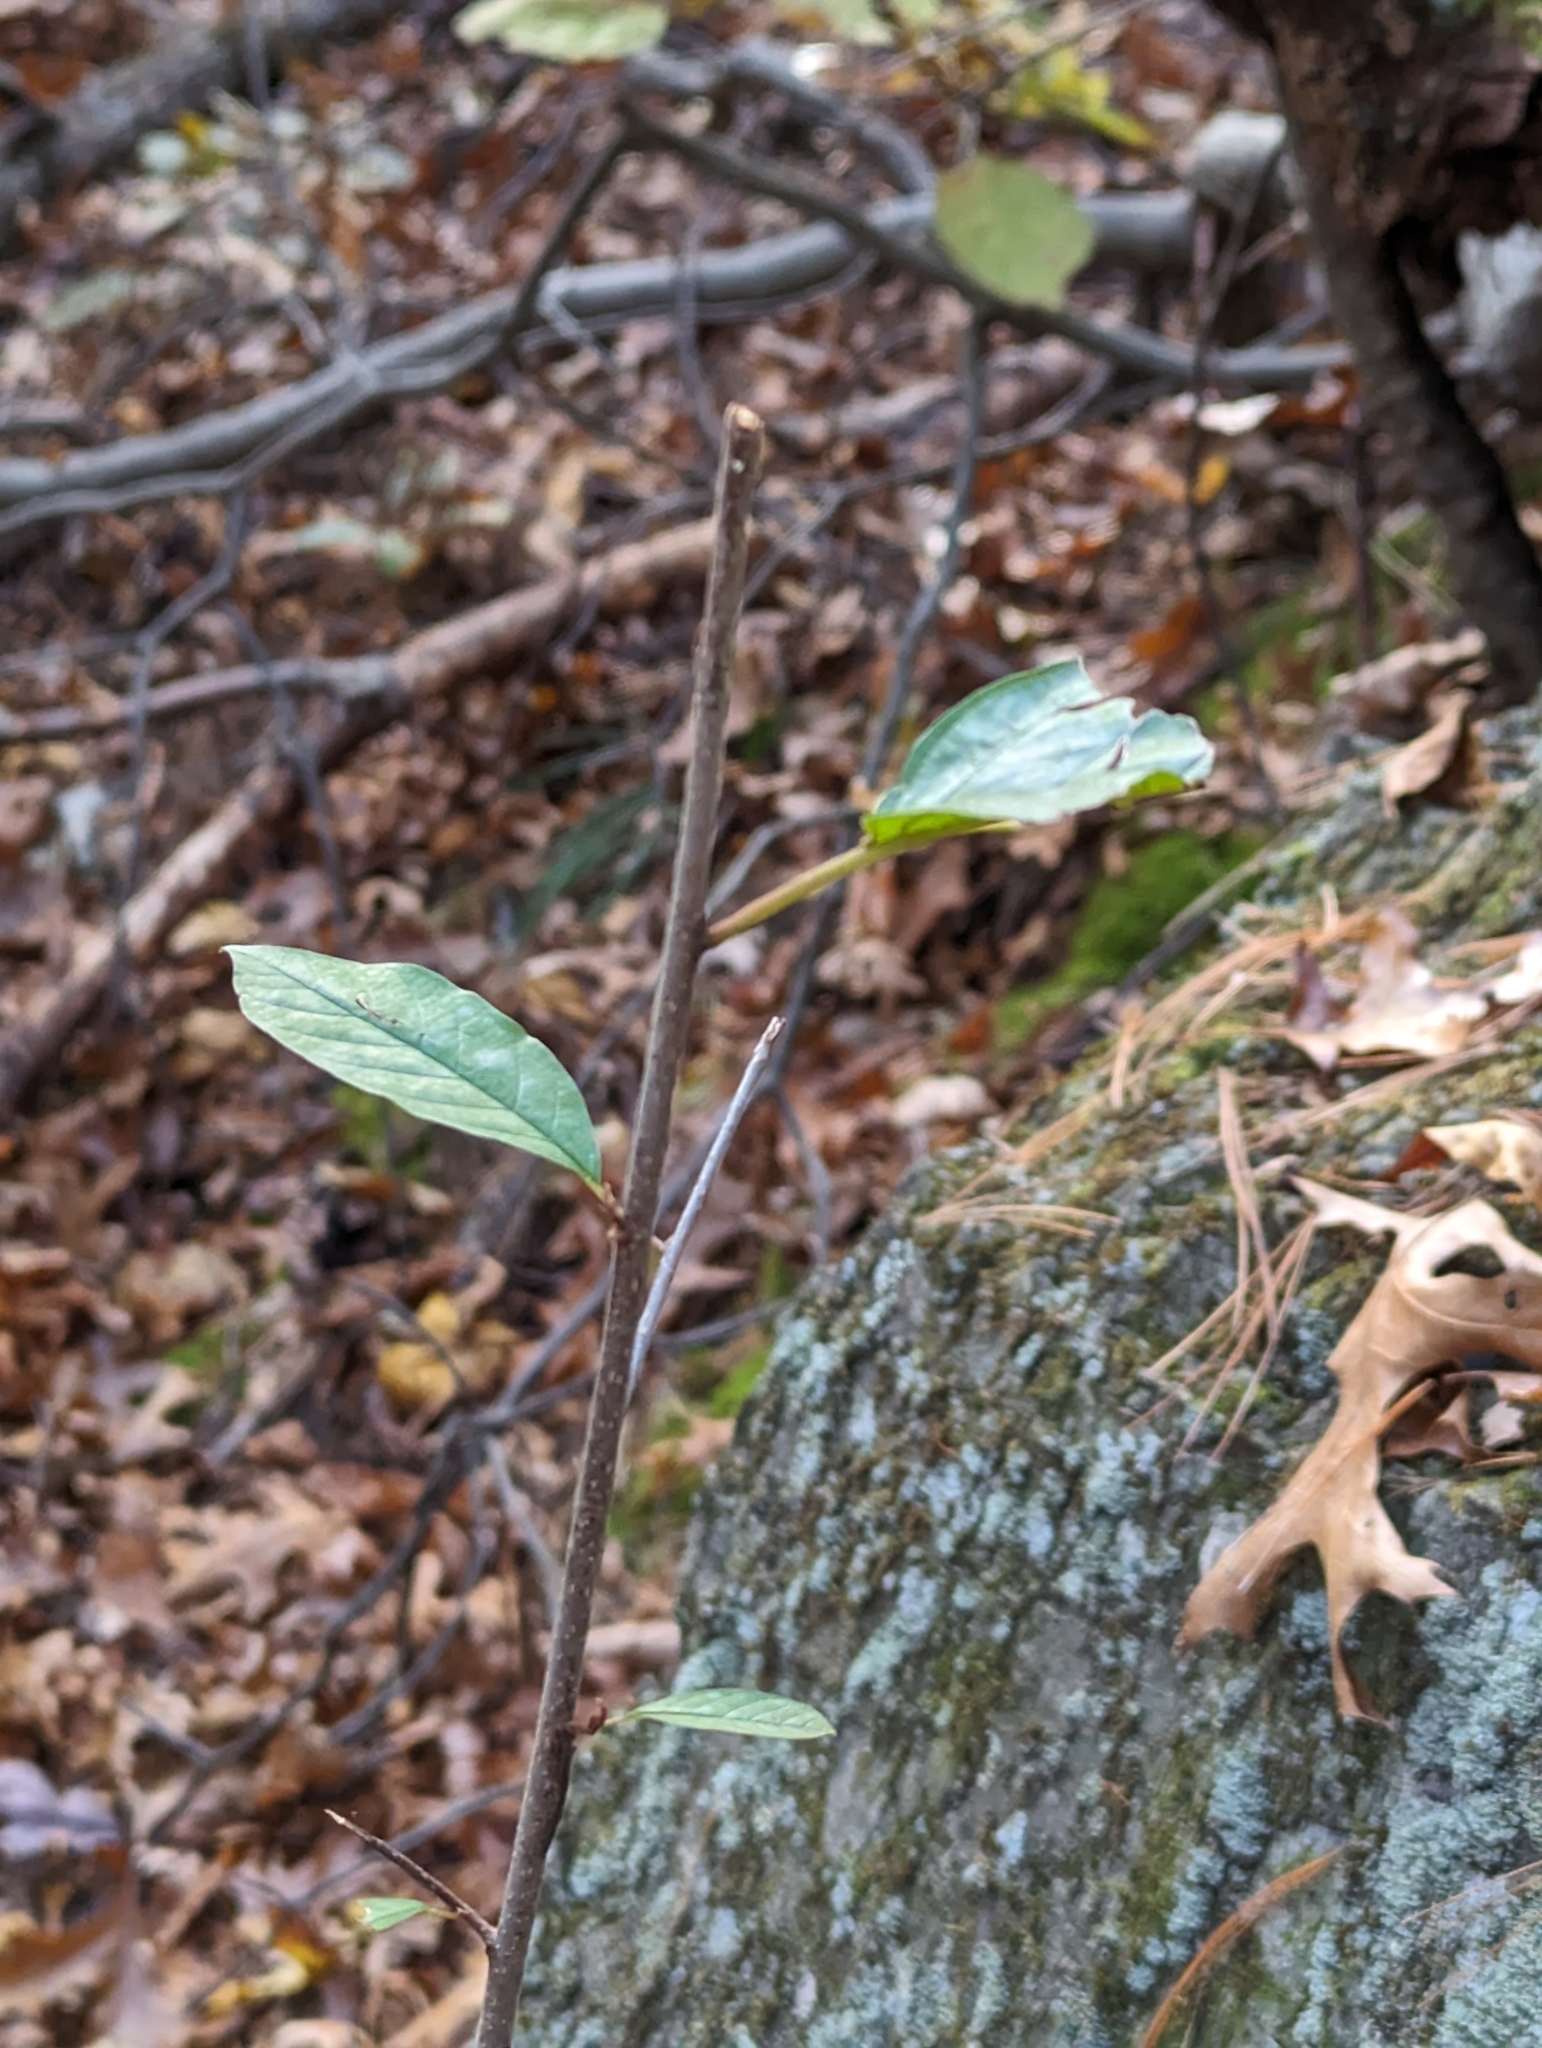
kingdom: Plantae
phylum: Tracheophyta
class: Magnoliopsida
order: Rosales
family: Rhamnaceae
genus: Frangula
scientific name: Frangula alnus
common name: Alder buckthorn
